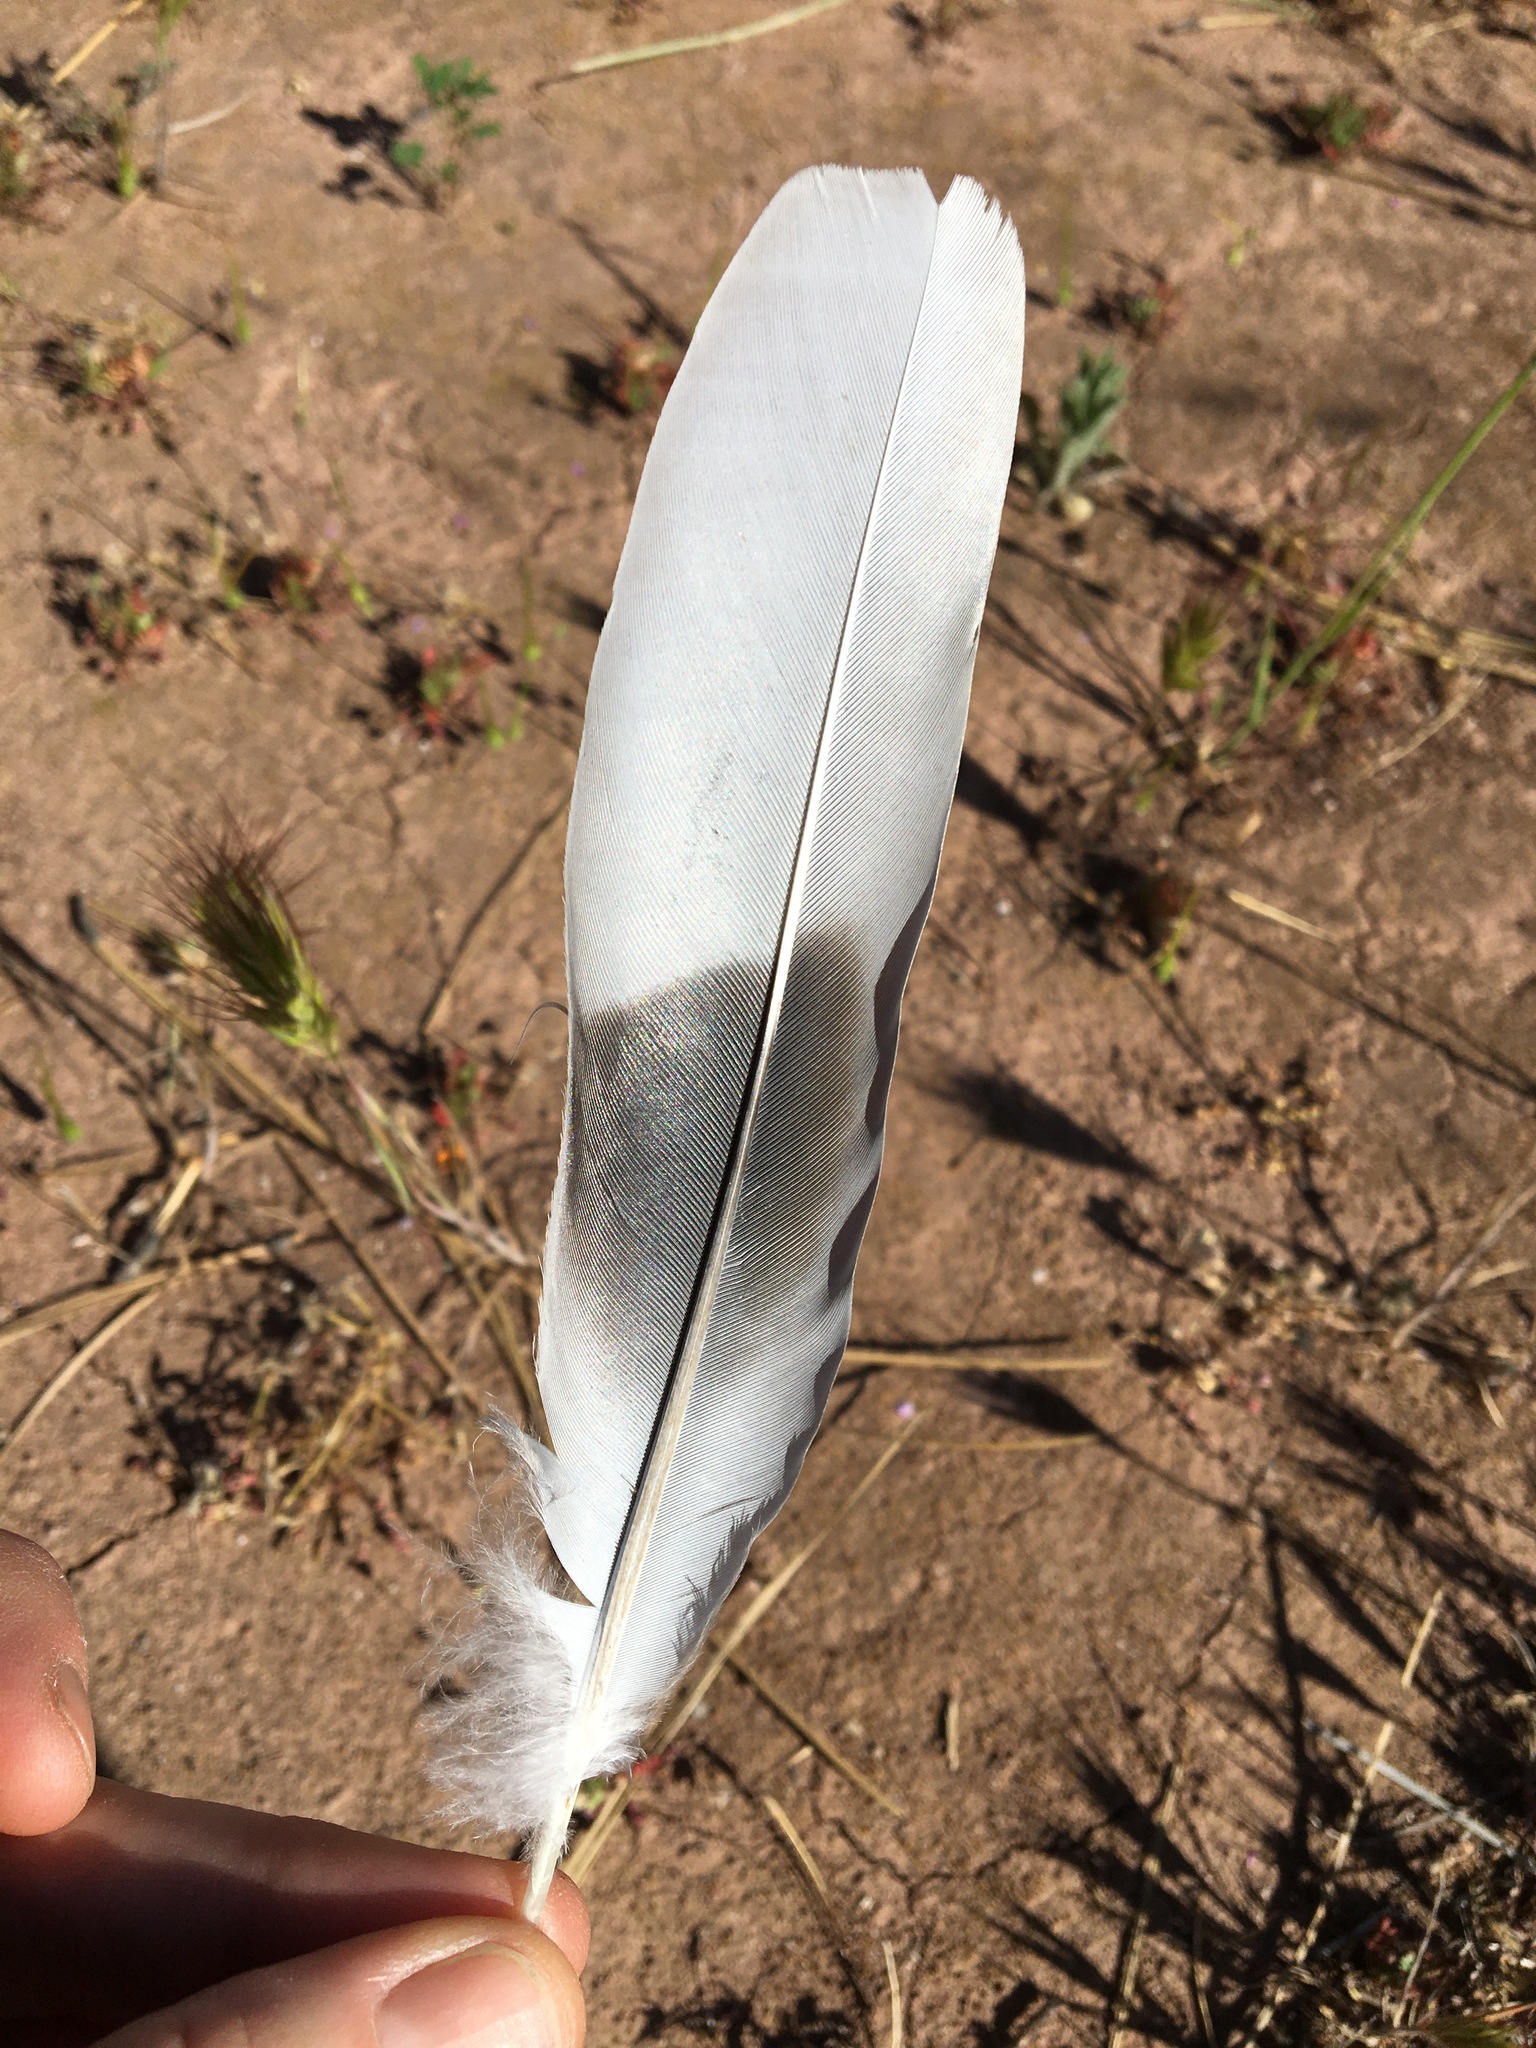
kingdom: Animalia
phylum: Chordata
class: Aves
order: Columbiformes
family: Columbidae
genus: Streptopelia
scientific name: Streptopelia decaocto
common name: Eurasian collared dove
